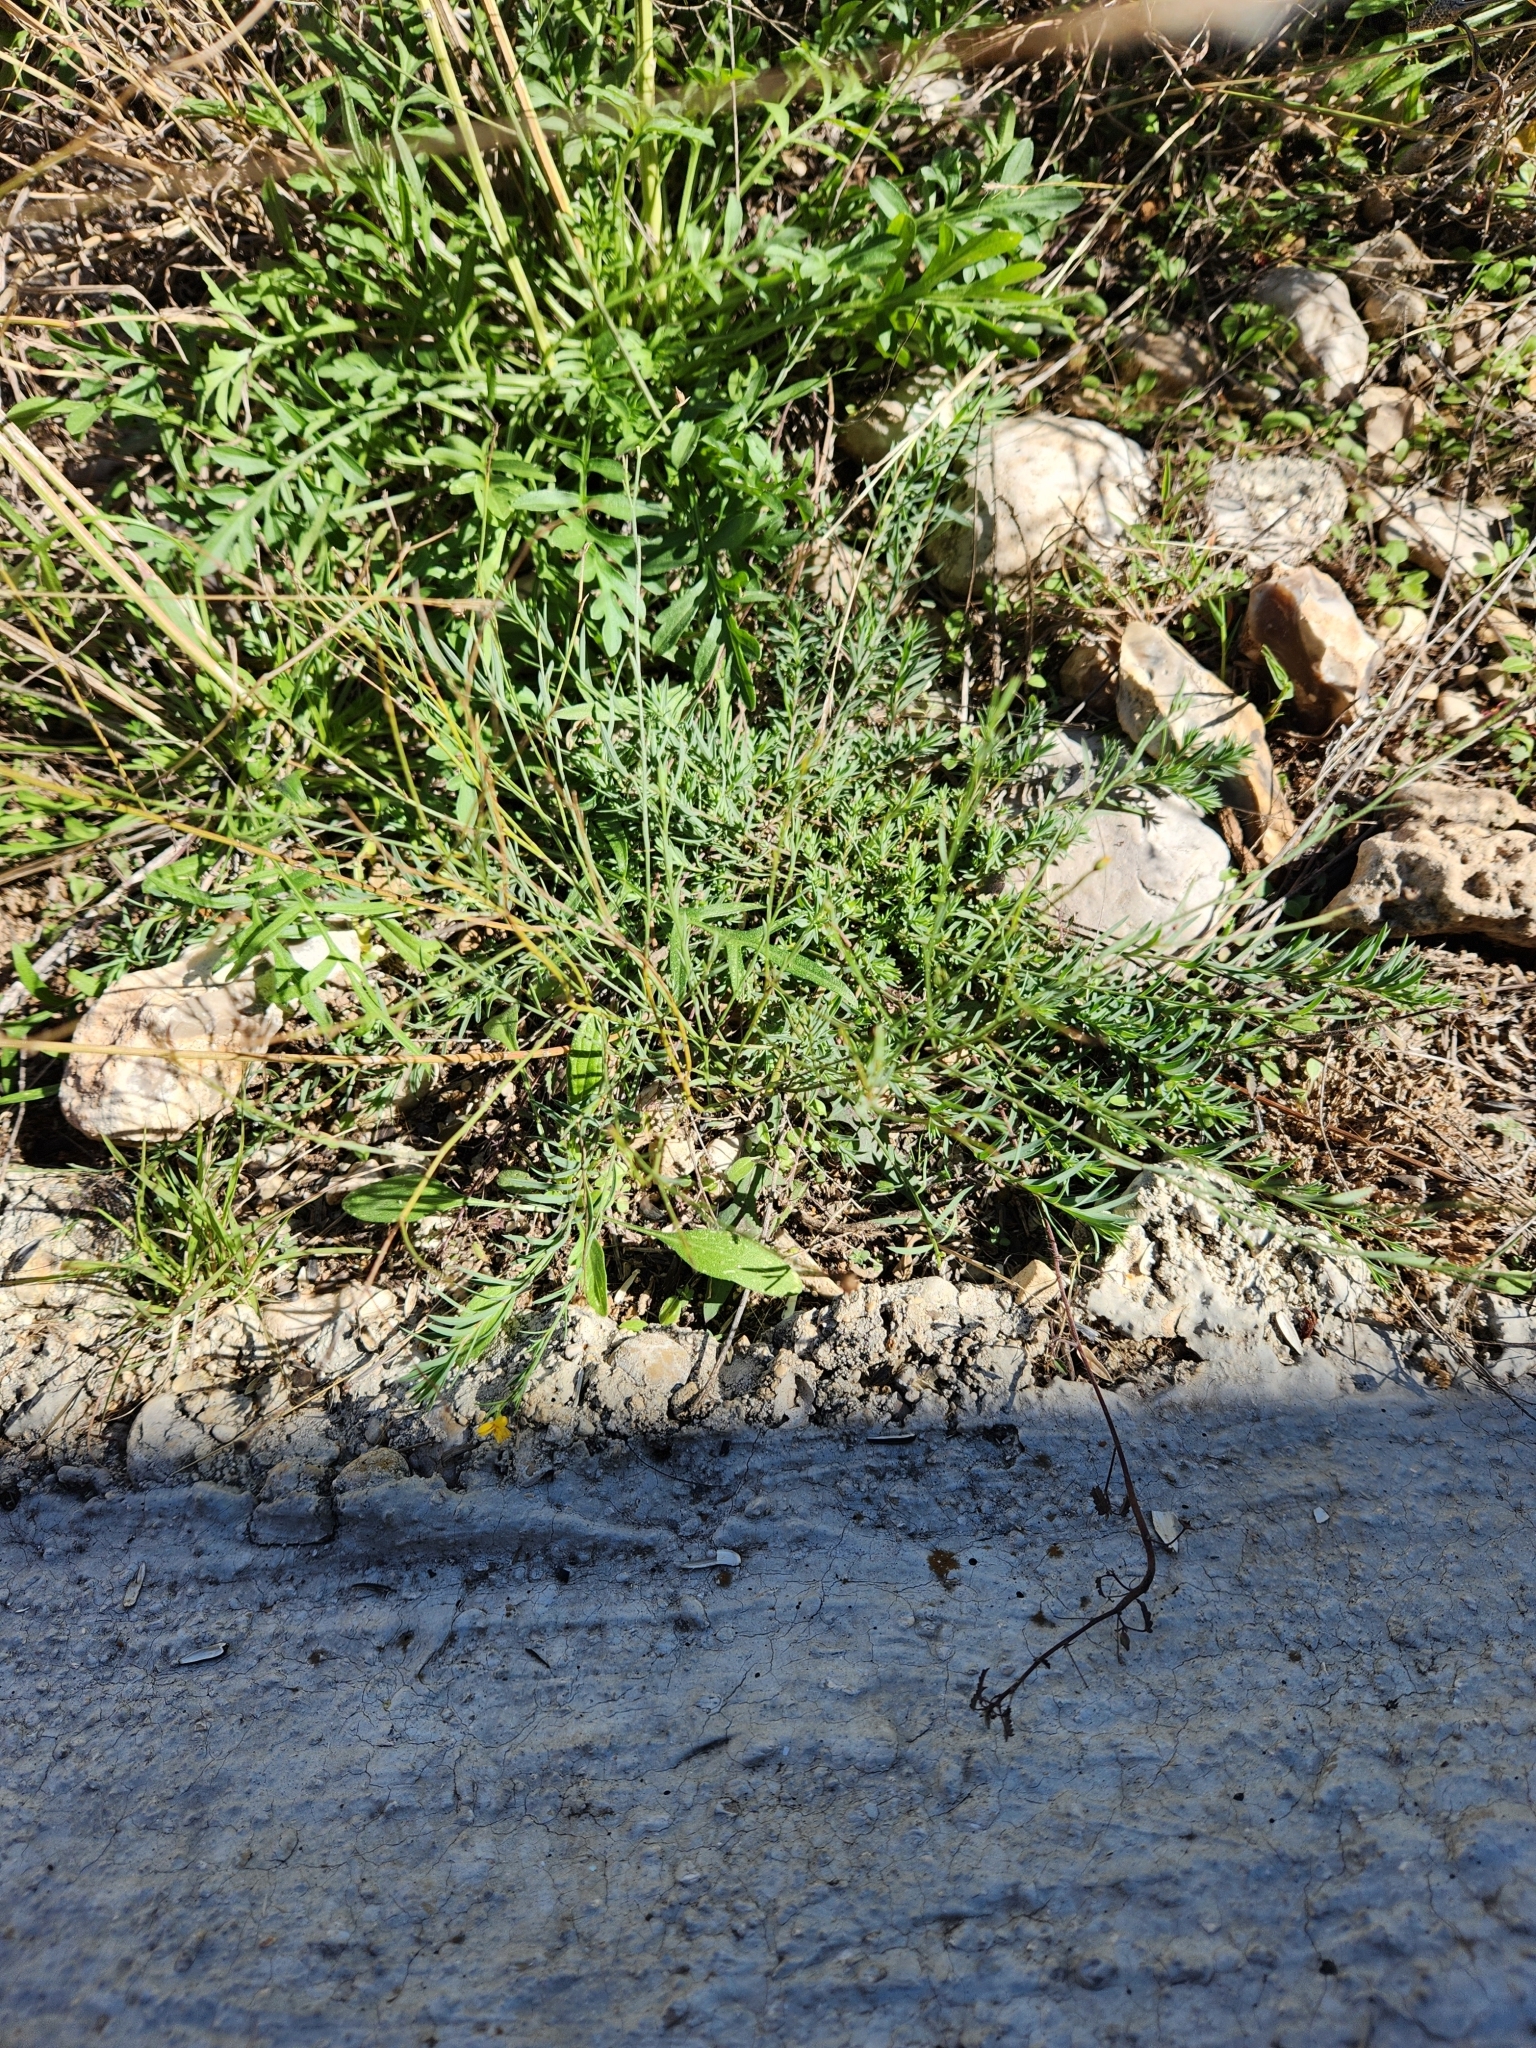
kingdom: Plantae
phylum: Tracheophyta
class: Magnoliopsida
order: Malpighiales
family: Linaceae
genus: Linum
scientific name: Linum rupestre
